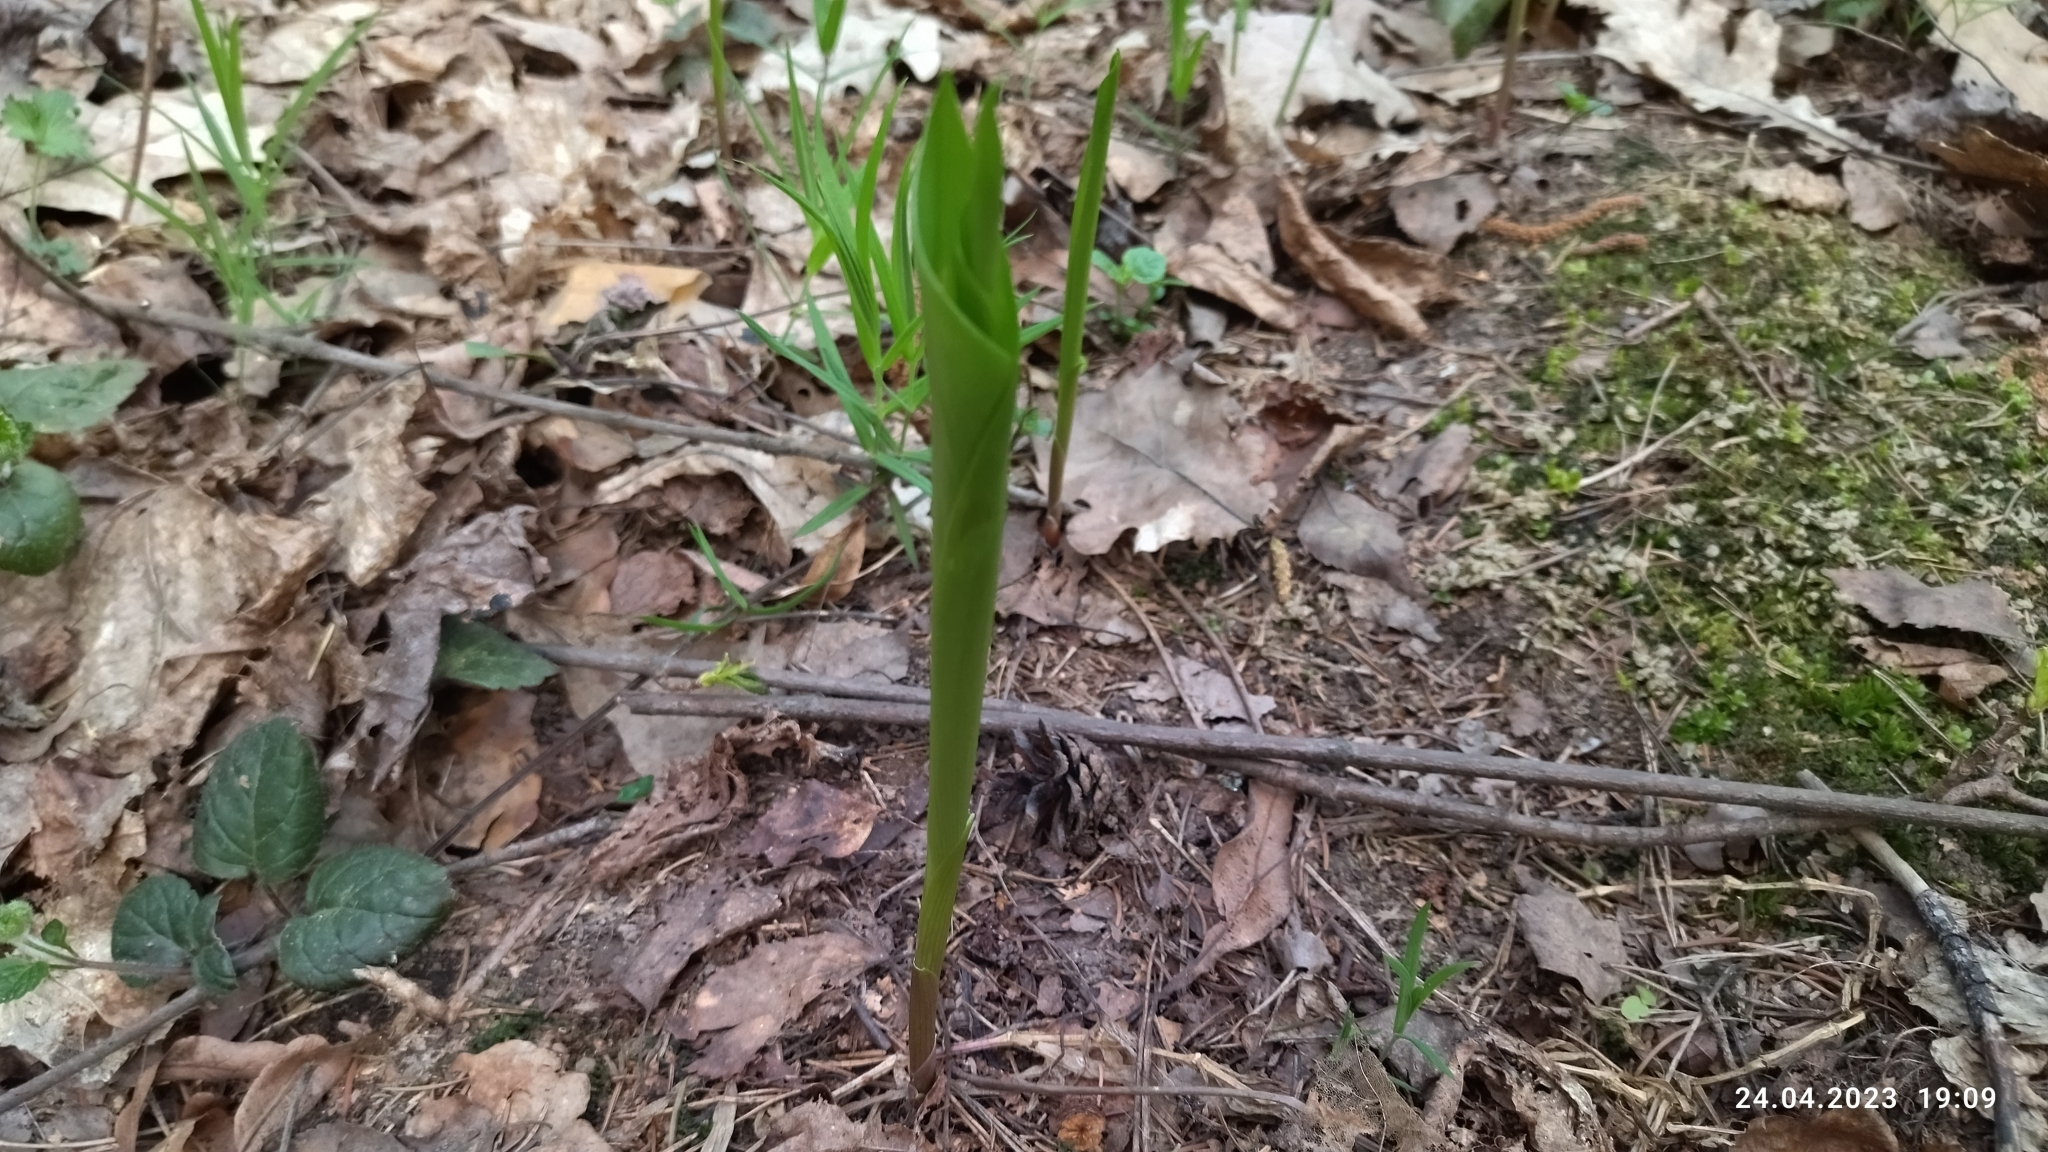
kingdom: Plantae
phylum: Tracheophyta
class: Liliopsida
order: Asparagales
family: Asparagaceae
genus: Convallaria
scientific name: Convallaria majalis
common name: Lily-of-the-valley
